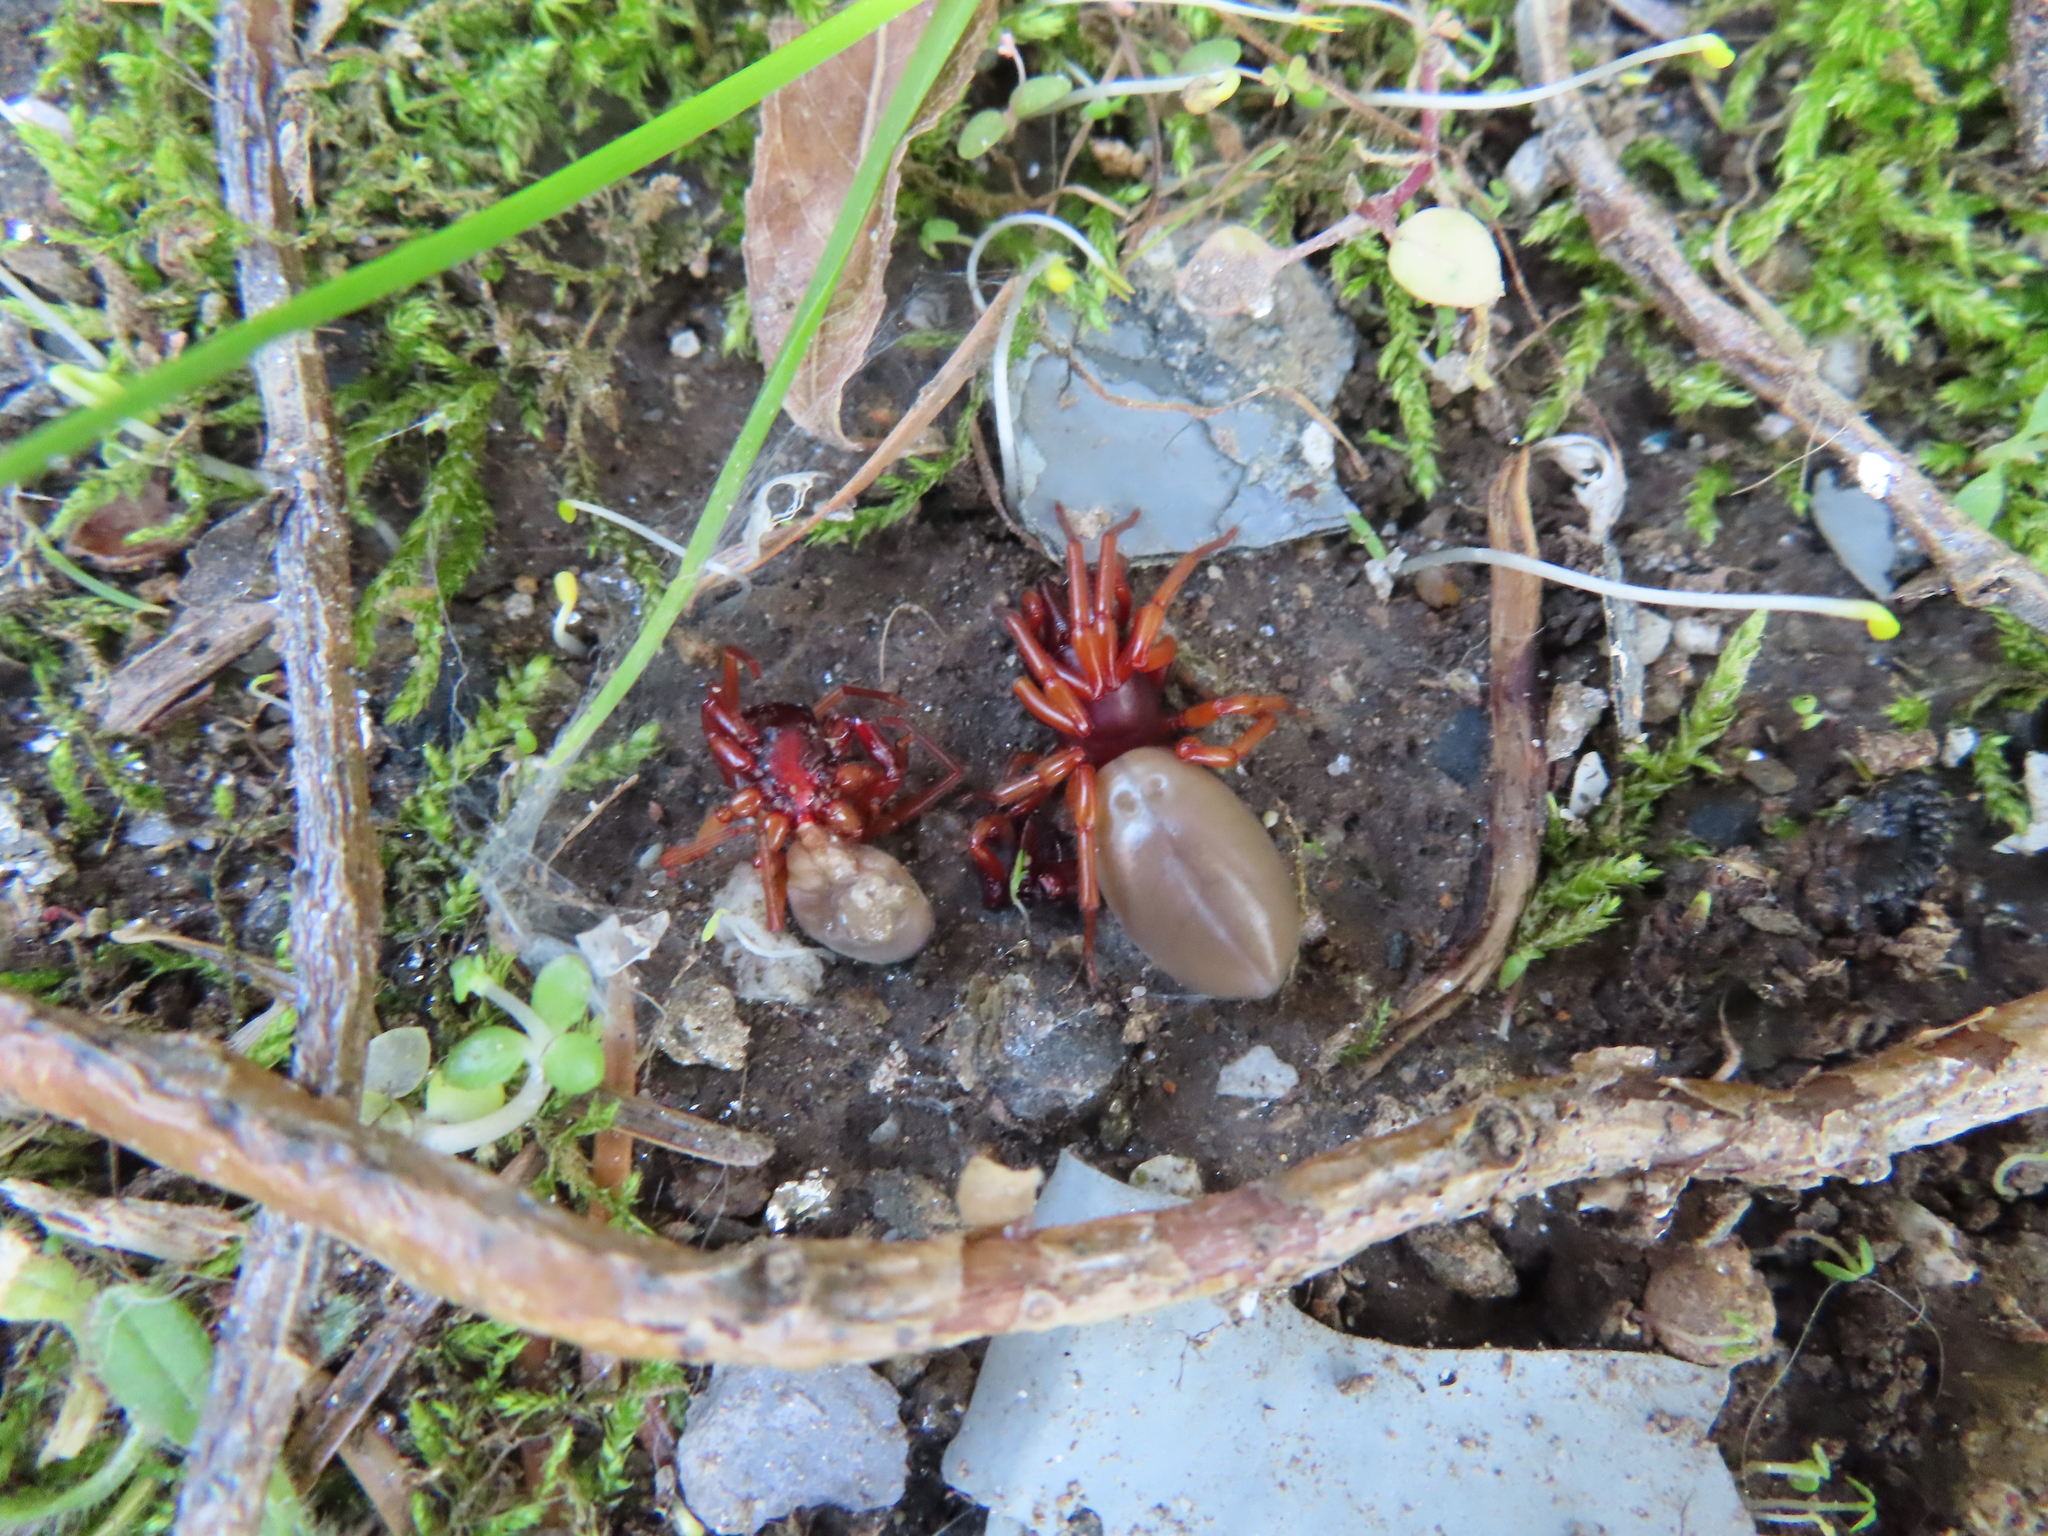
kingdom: Animalia
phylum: Arthropoda
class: Arachnida
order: Araneae
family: Dysderidae
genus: Dysdera
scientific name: Dysdera crocata
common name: Woodlouse spider
